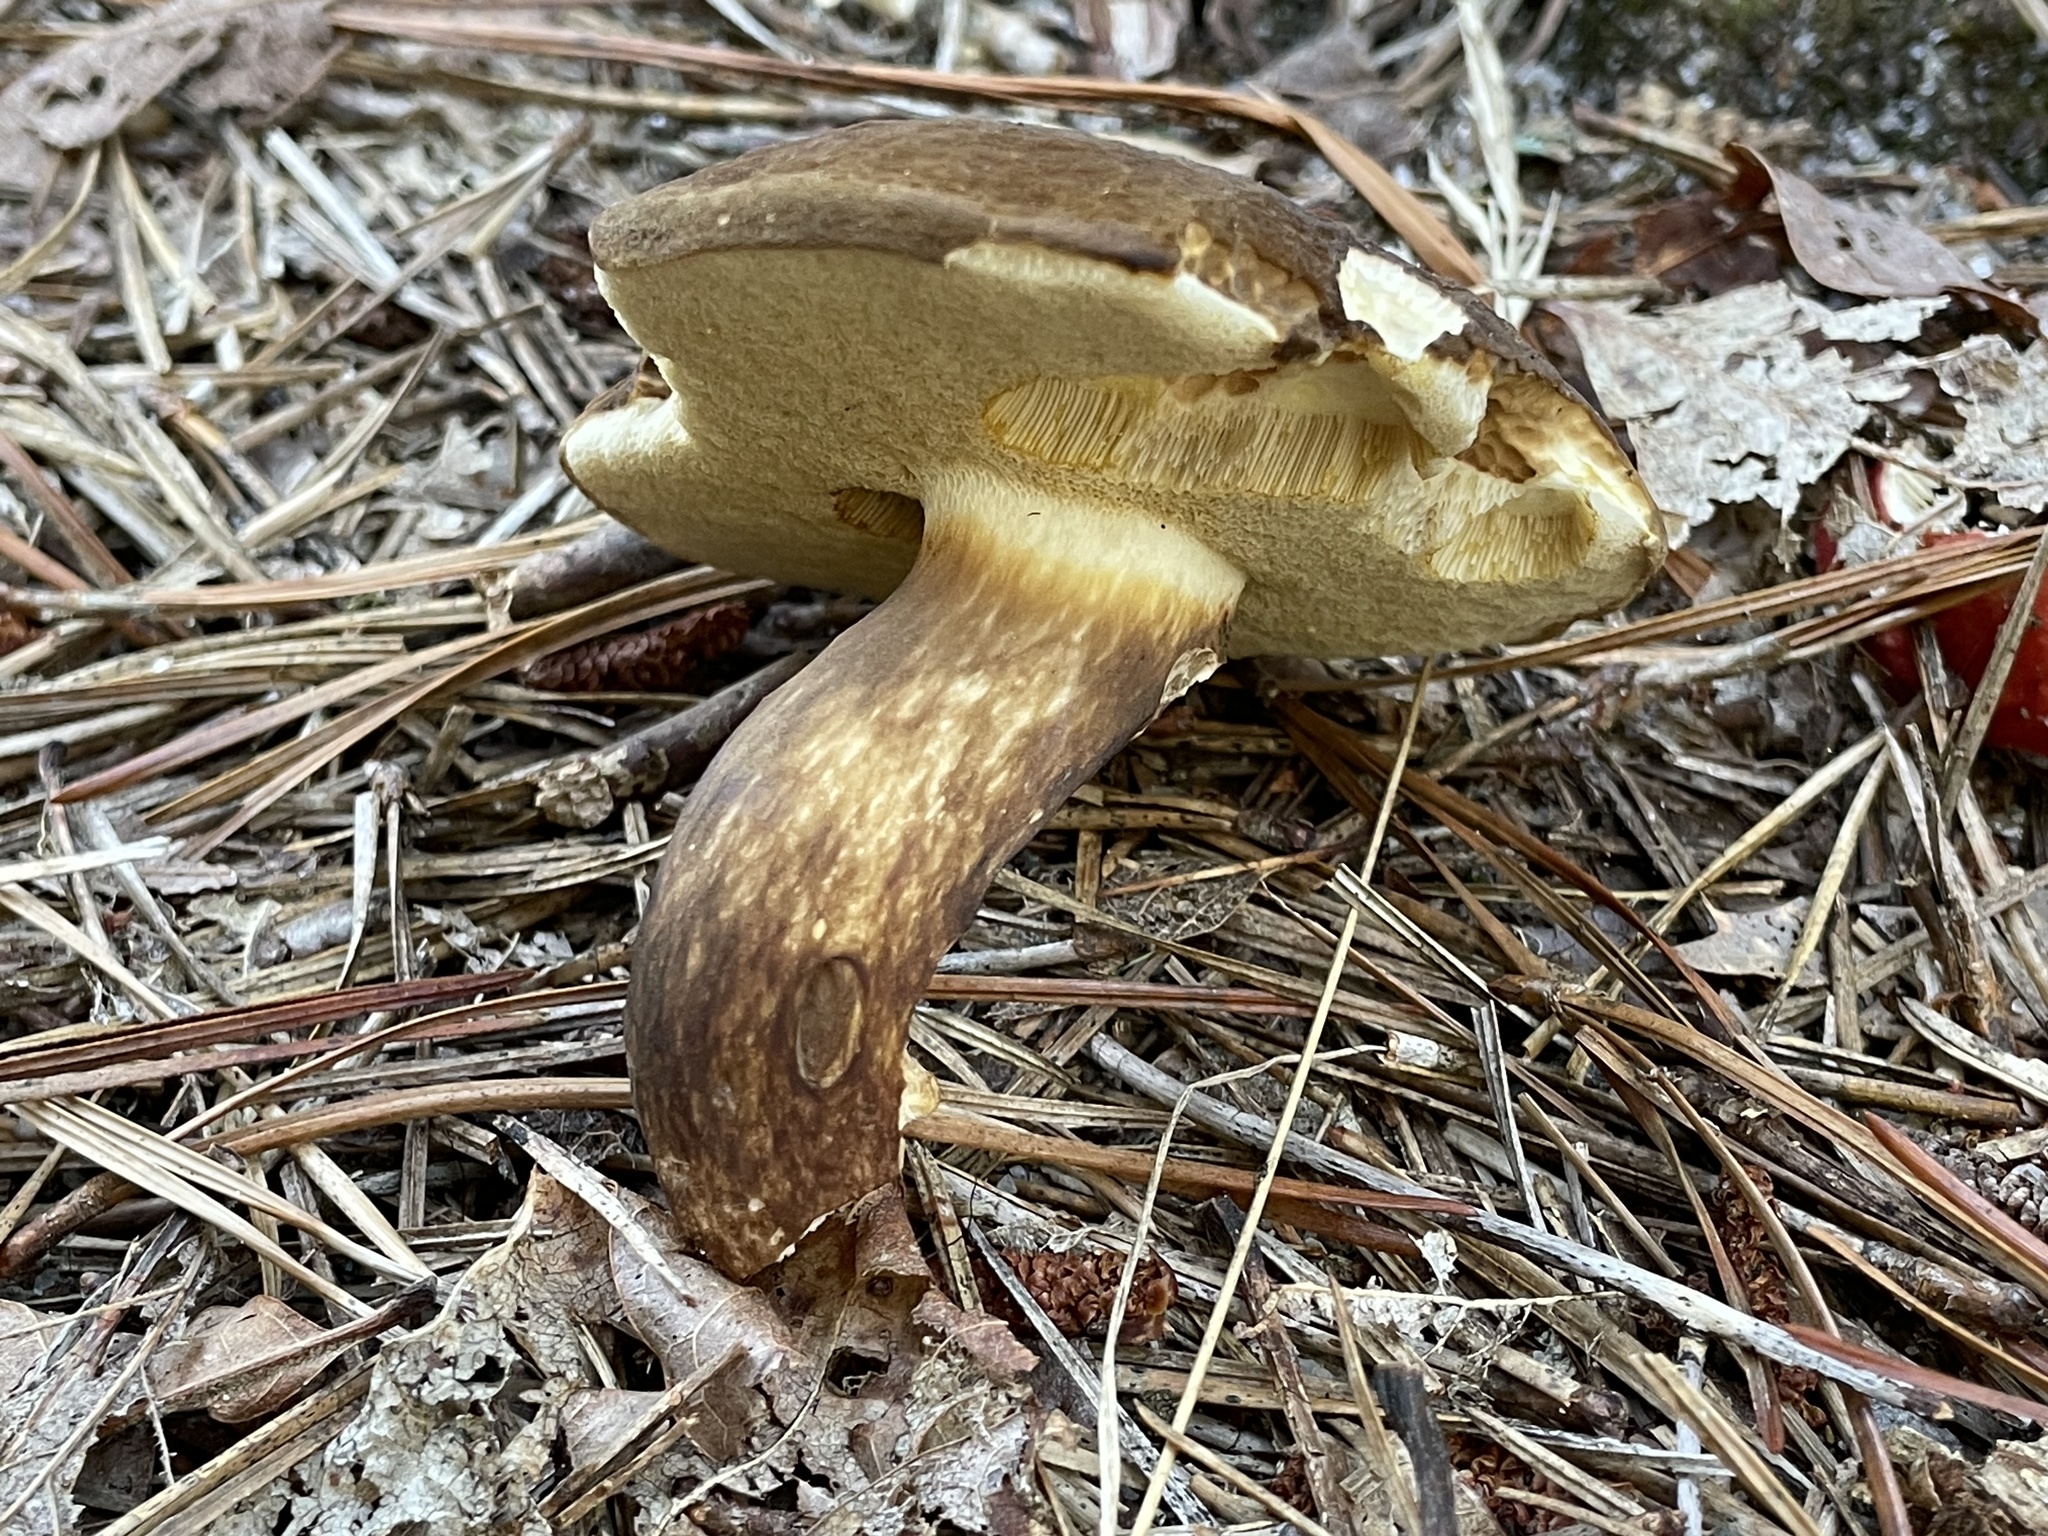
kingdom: Fungi
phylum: Basidiomycota
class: Agaricomycetes
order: Boletales
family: Boletaceae
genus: Xanthoconium
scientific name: Xanthoconium affine
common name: Spotted bolete
